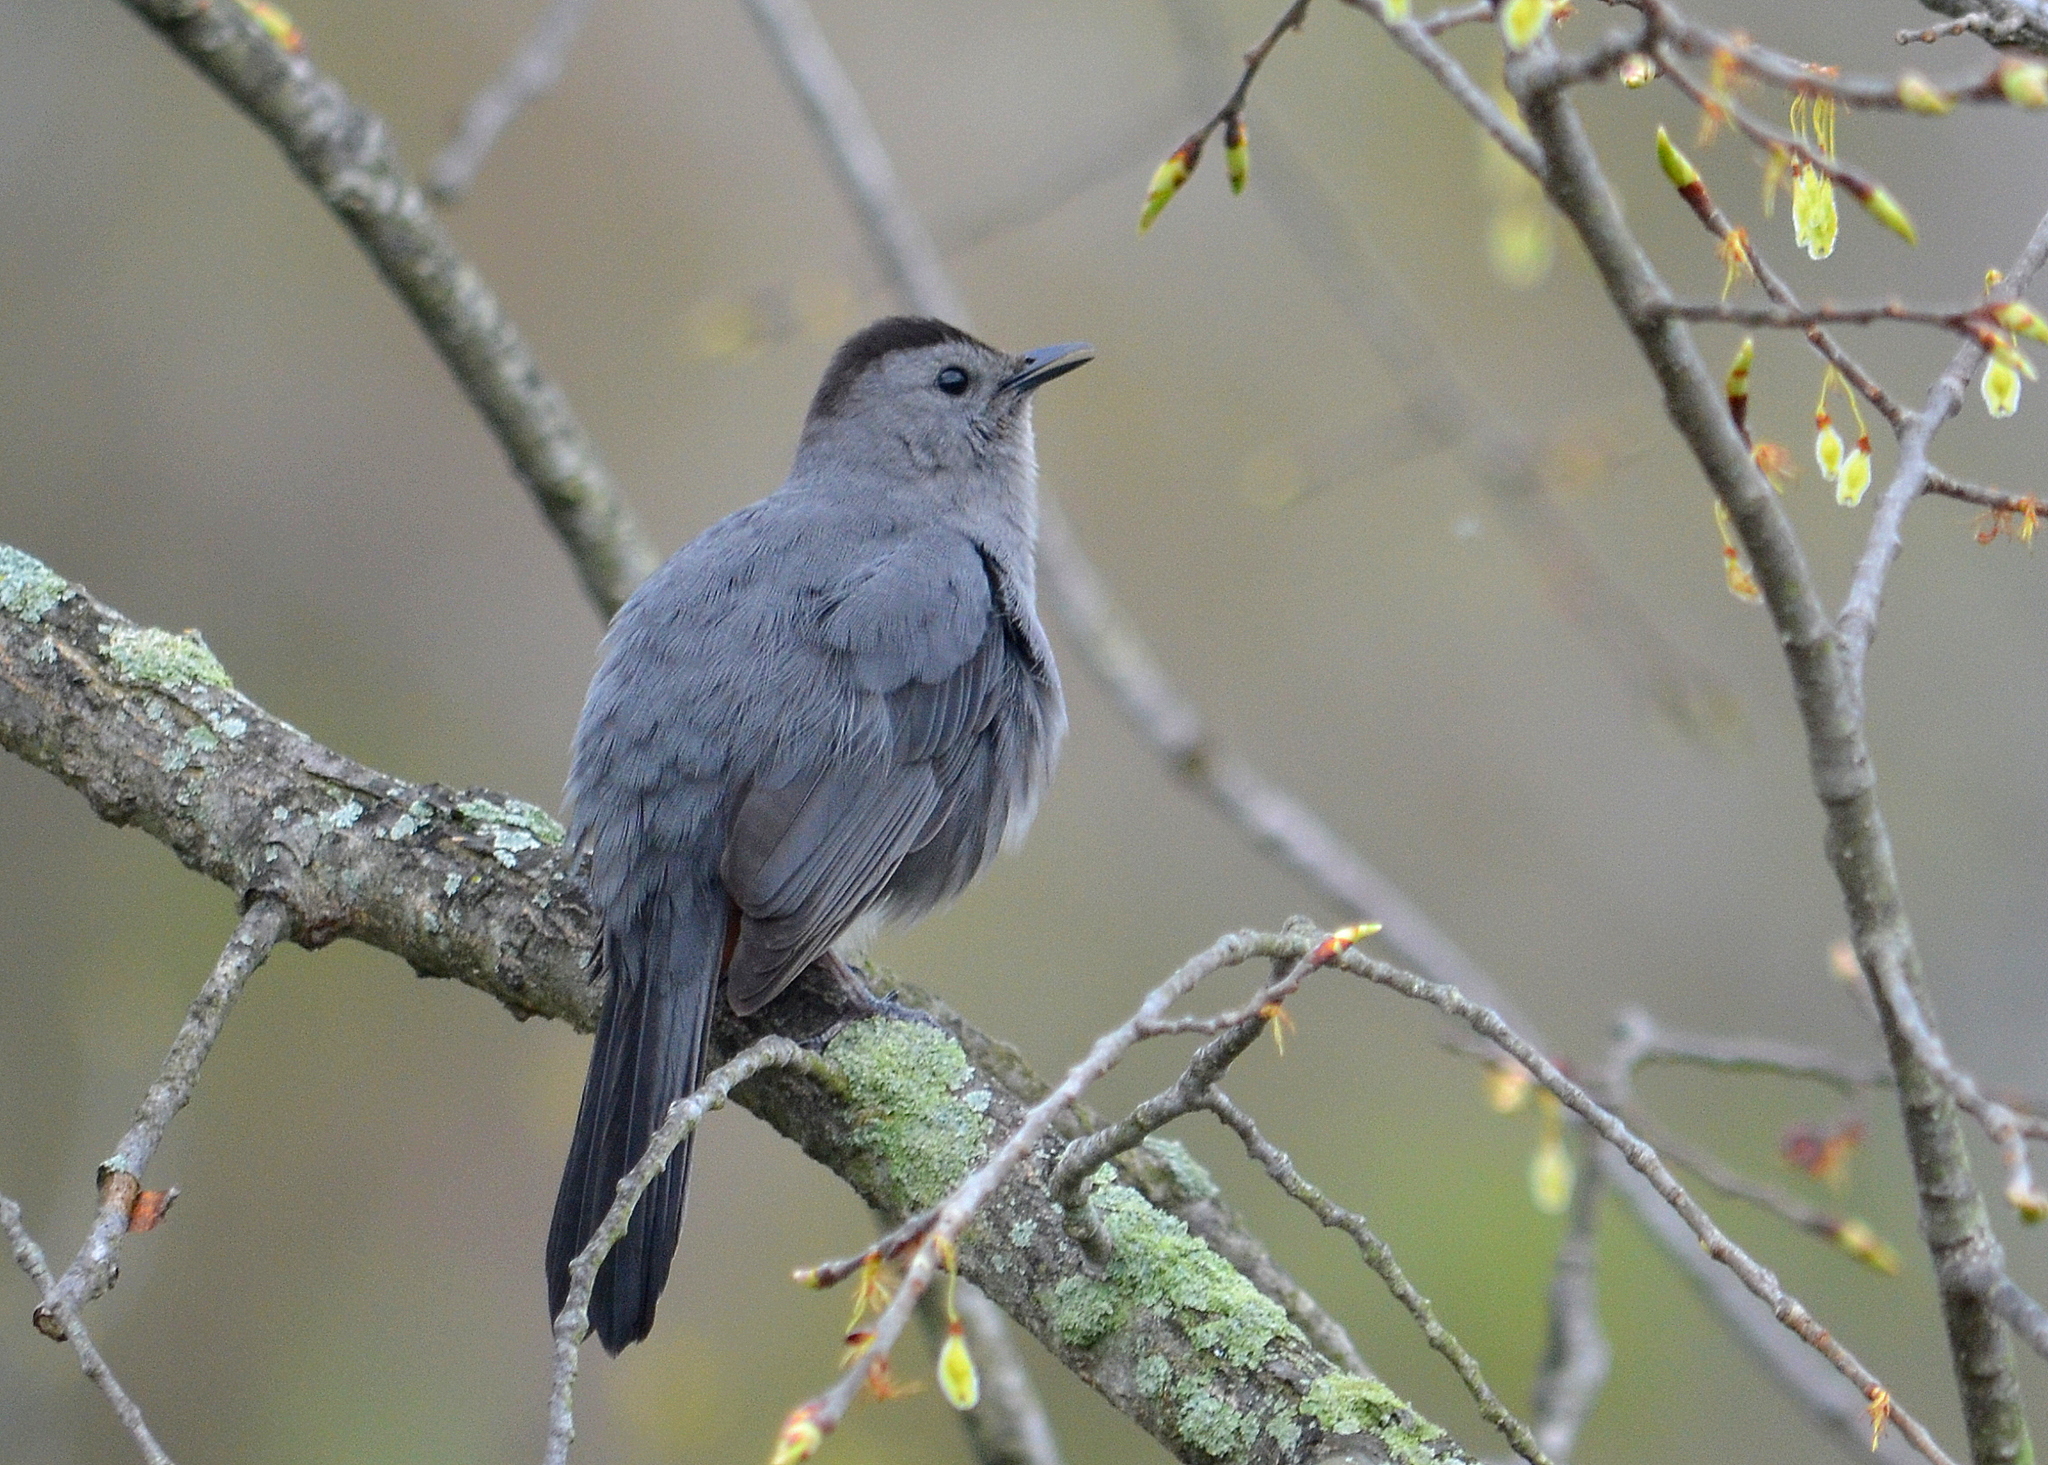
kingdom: Animalia
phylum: Chordata
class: Aves
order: Passeriformes
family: Mimidae
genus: Dumetella
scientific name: Dumetella carolinensis
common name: Gray catbird
